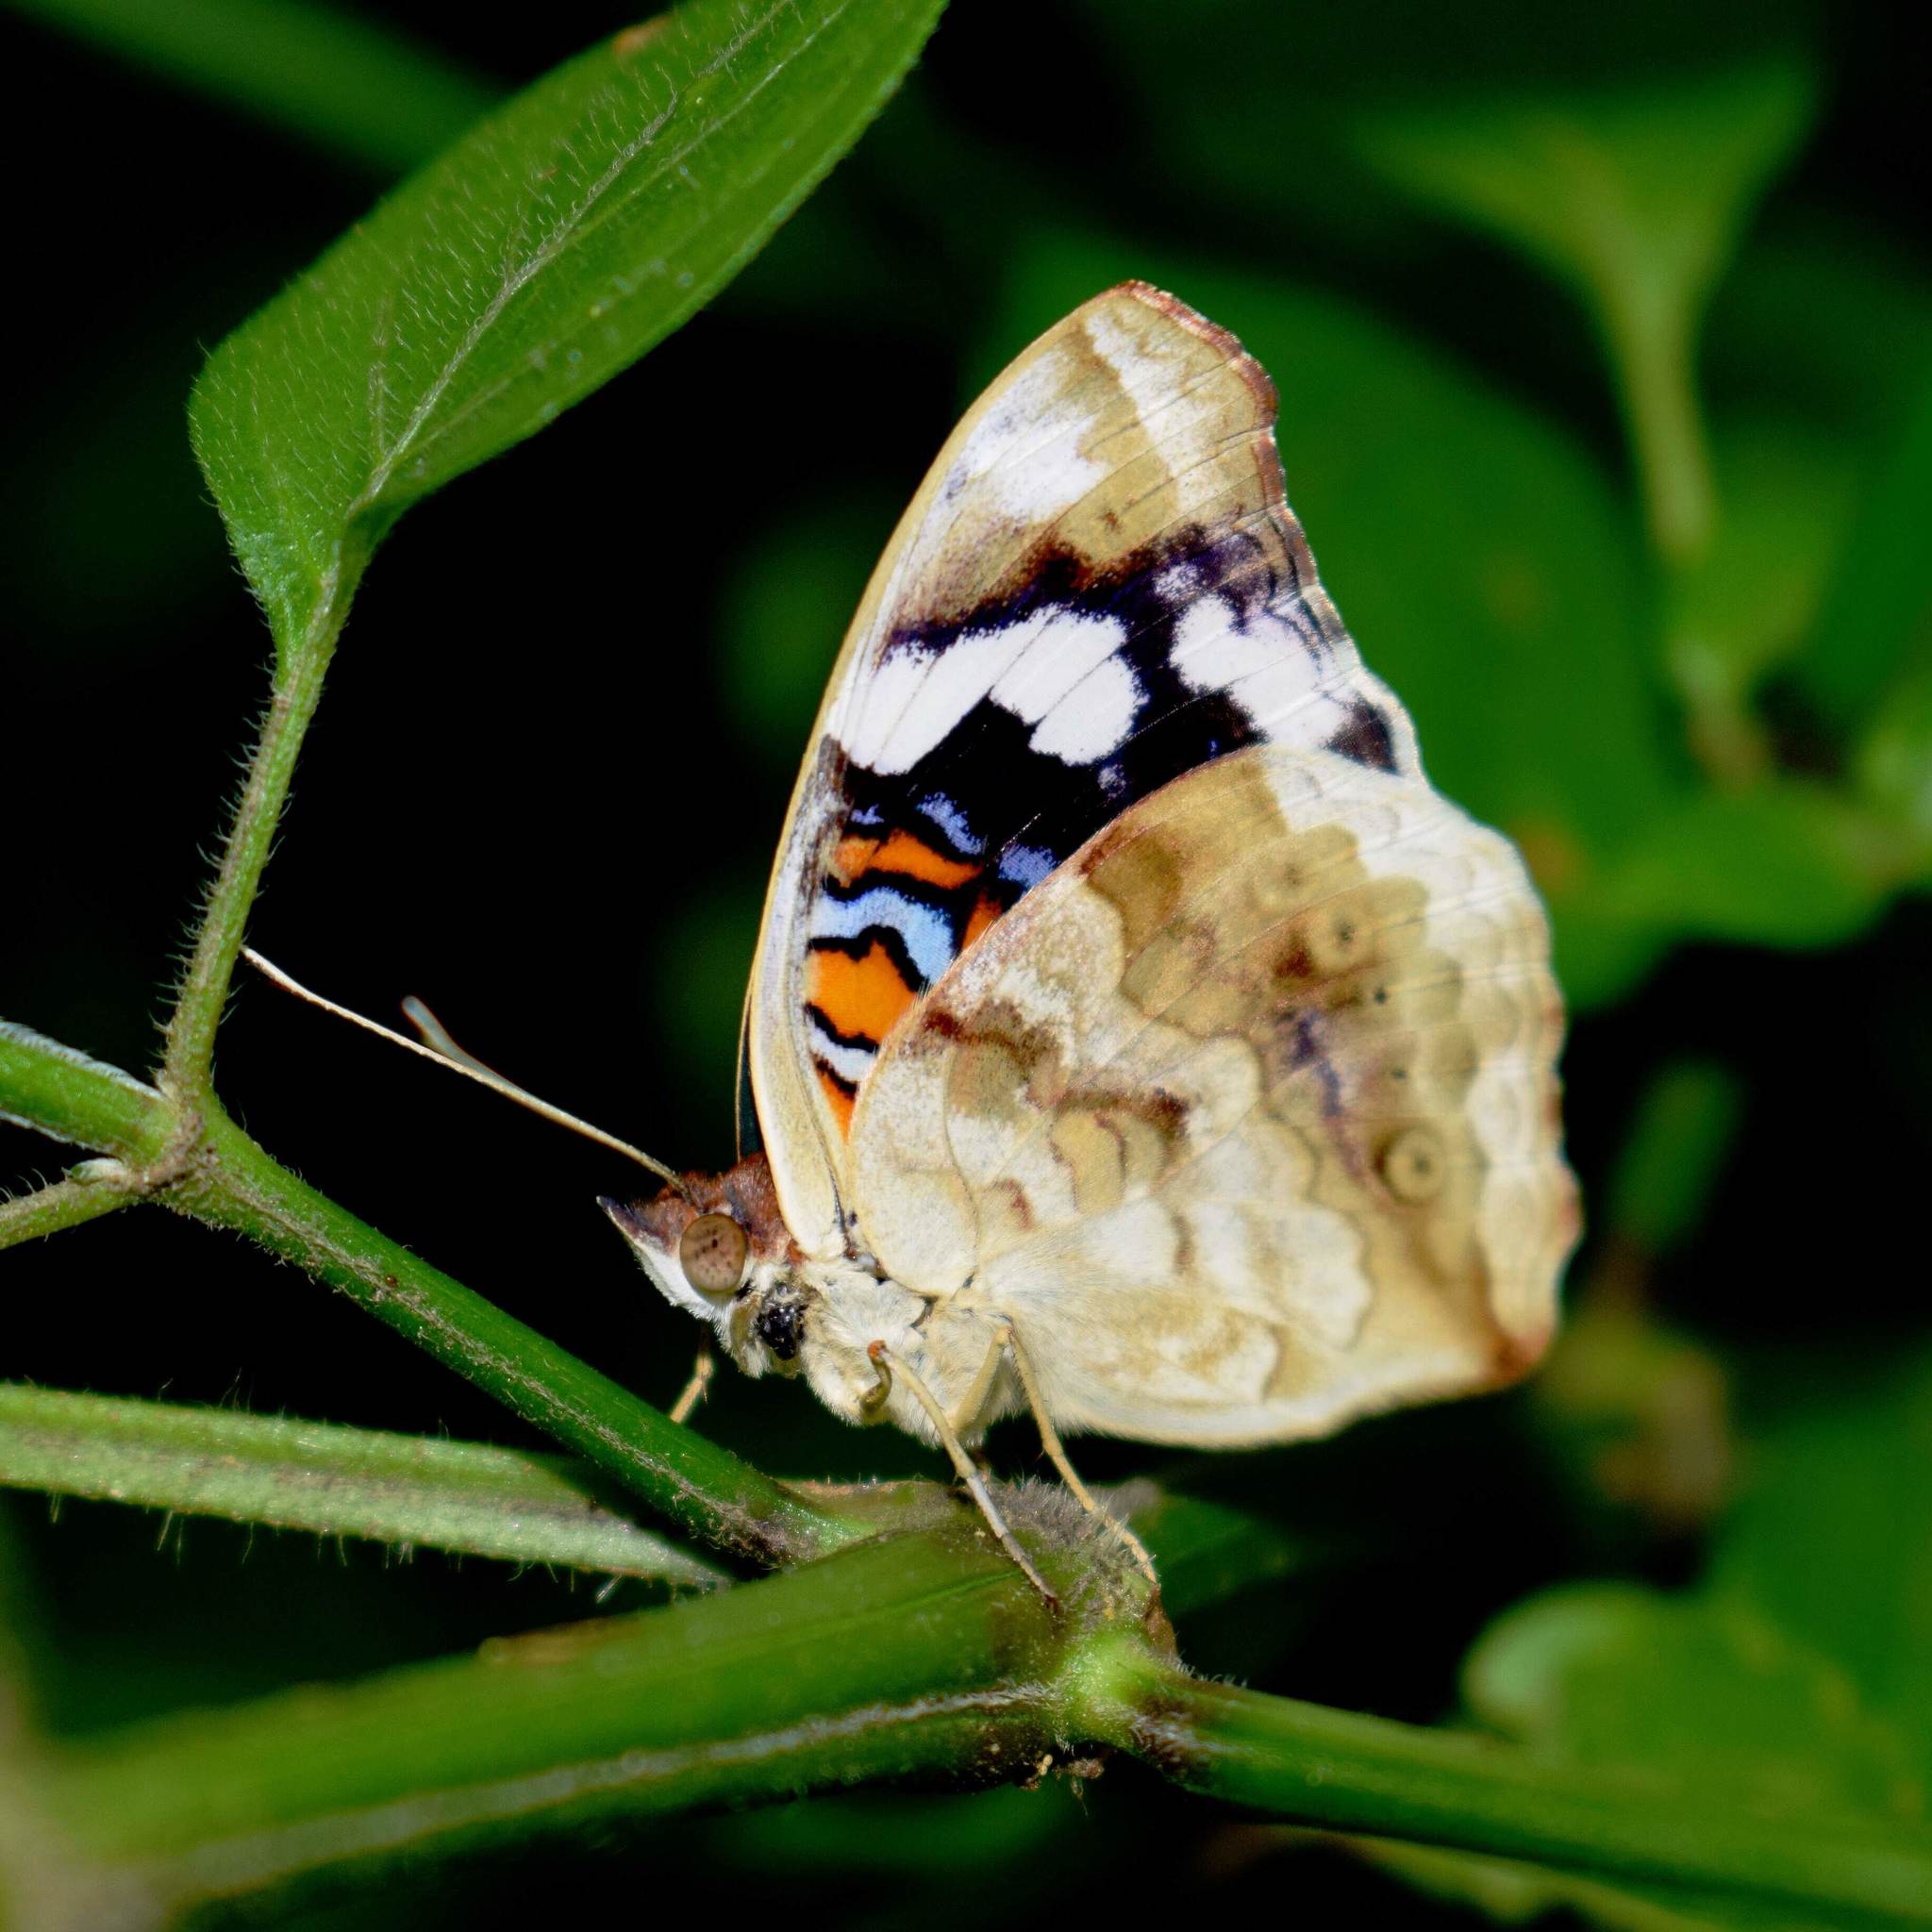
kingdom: Animalia
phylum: Arthropoda
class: Insecta
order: Lepidoptera
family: Nymphalidae
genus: Junonia
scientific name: Junonia oenone
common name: Dark blue pansy
